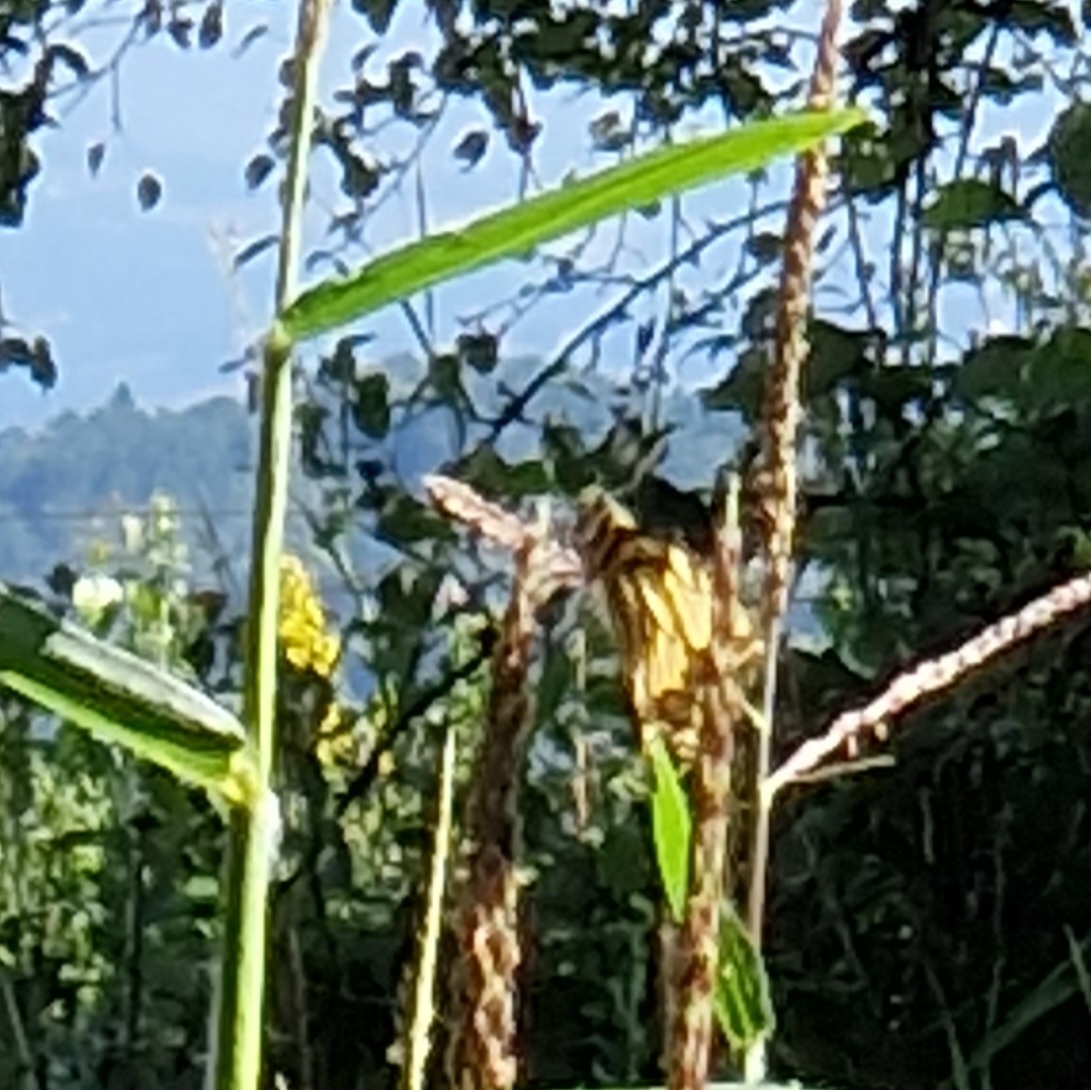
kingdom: Animalia
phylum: Arthropoda
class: Insecta
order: Lepidoptera
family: Papilionidae
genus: Papilio
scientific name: Papilio machaon
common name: Swallowtail
